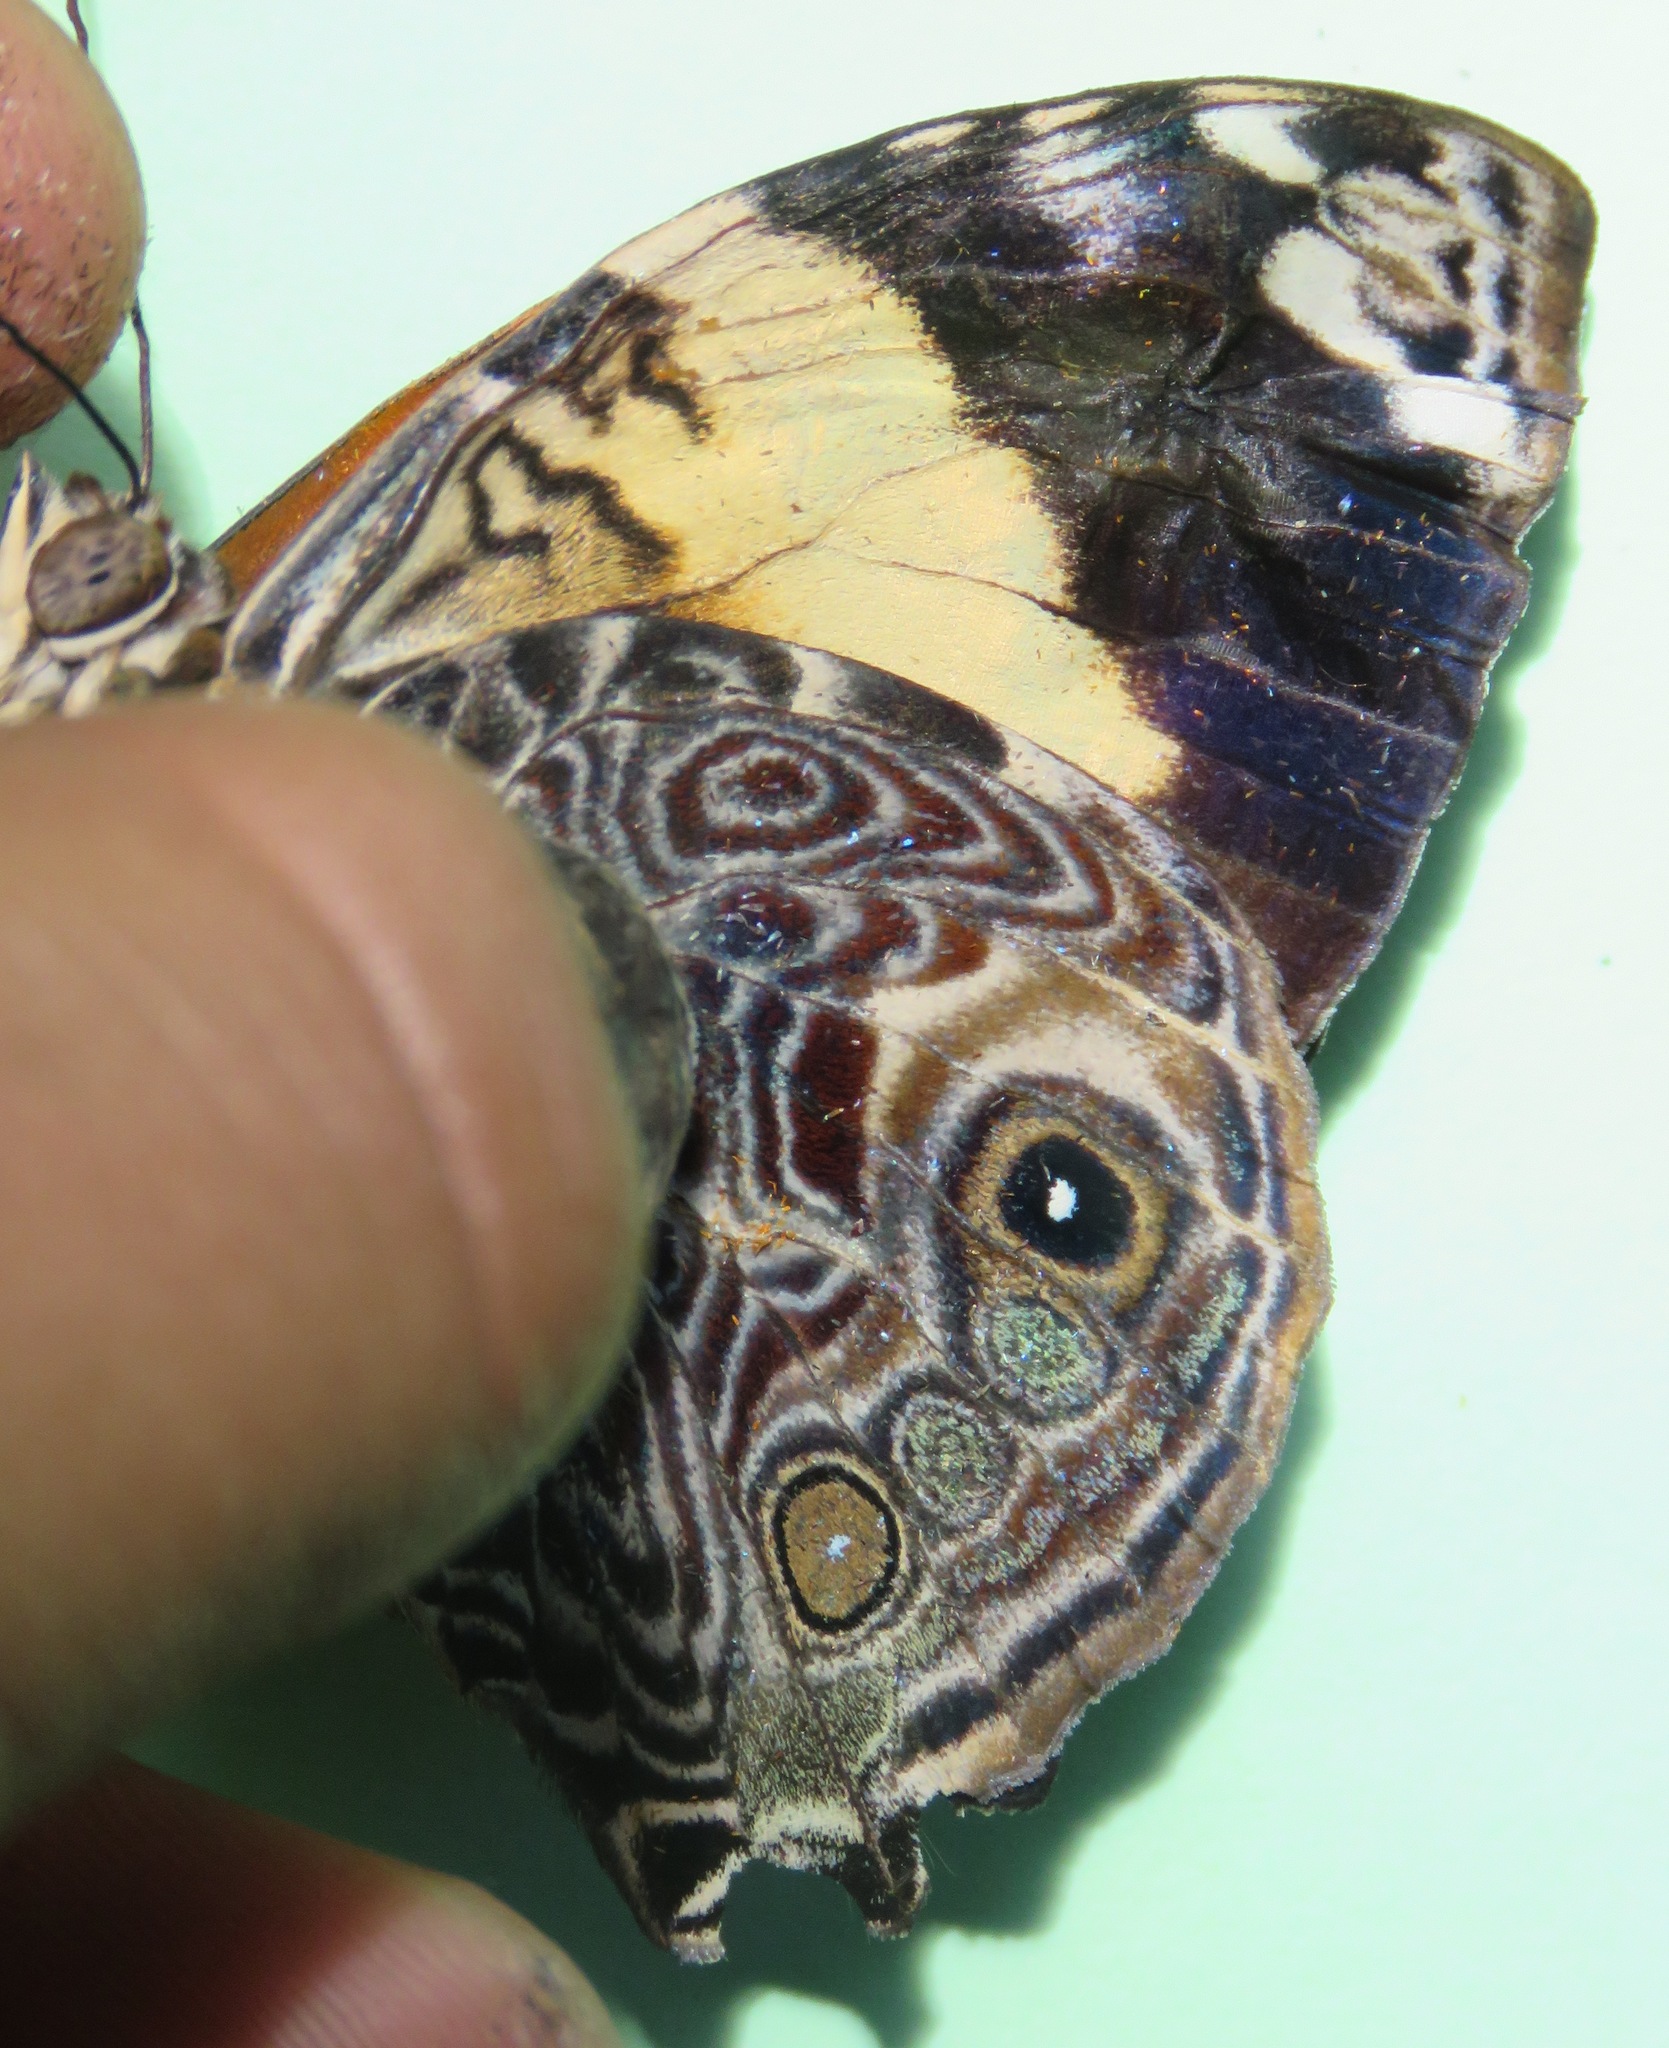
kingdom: Animalia
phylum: Arthropoda
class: Insecta
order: Lepidoptera
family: Nymphalidae
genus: Smyrna
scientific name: Smyrna blomfildia
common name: Blomfild's beauty
